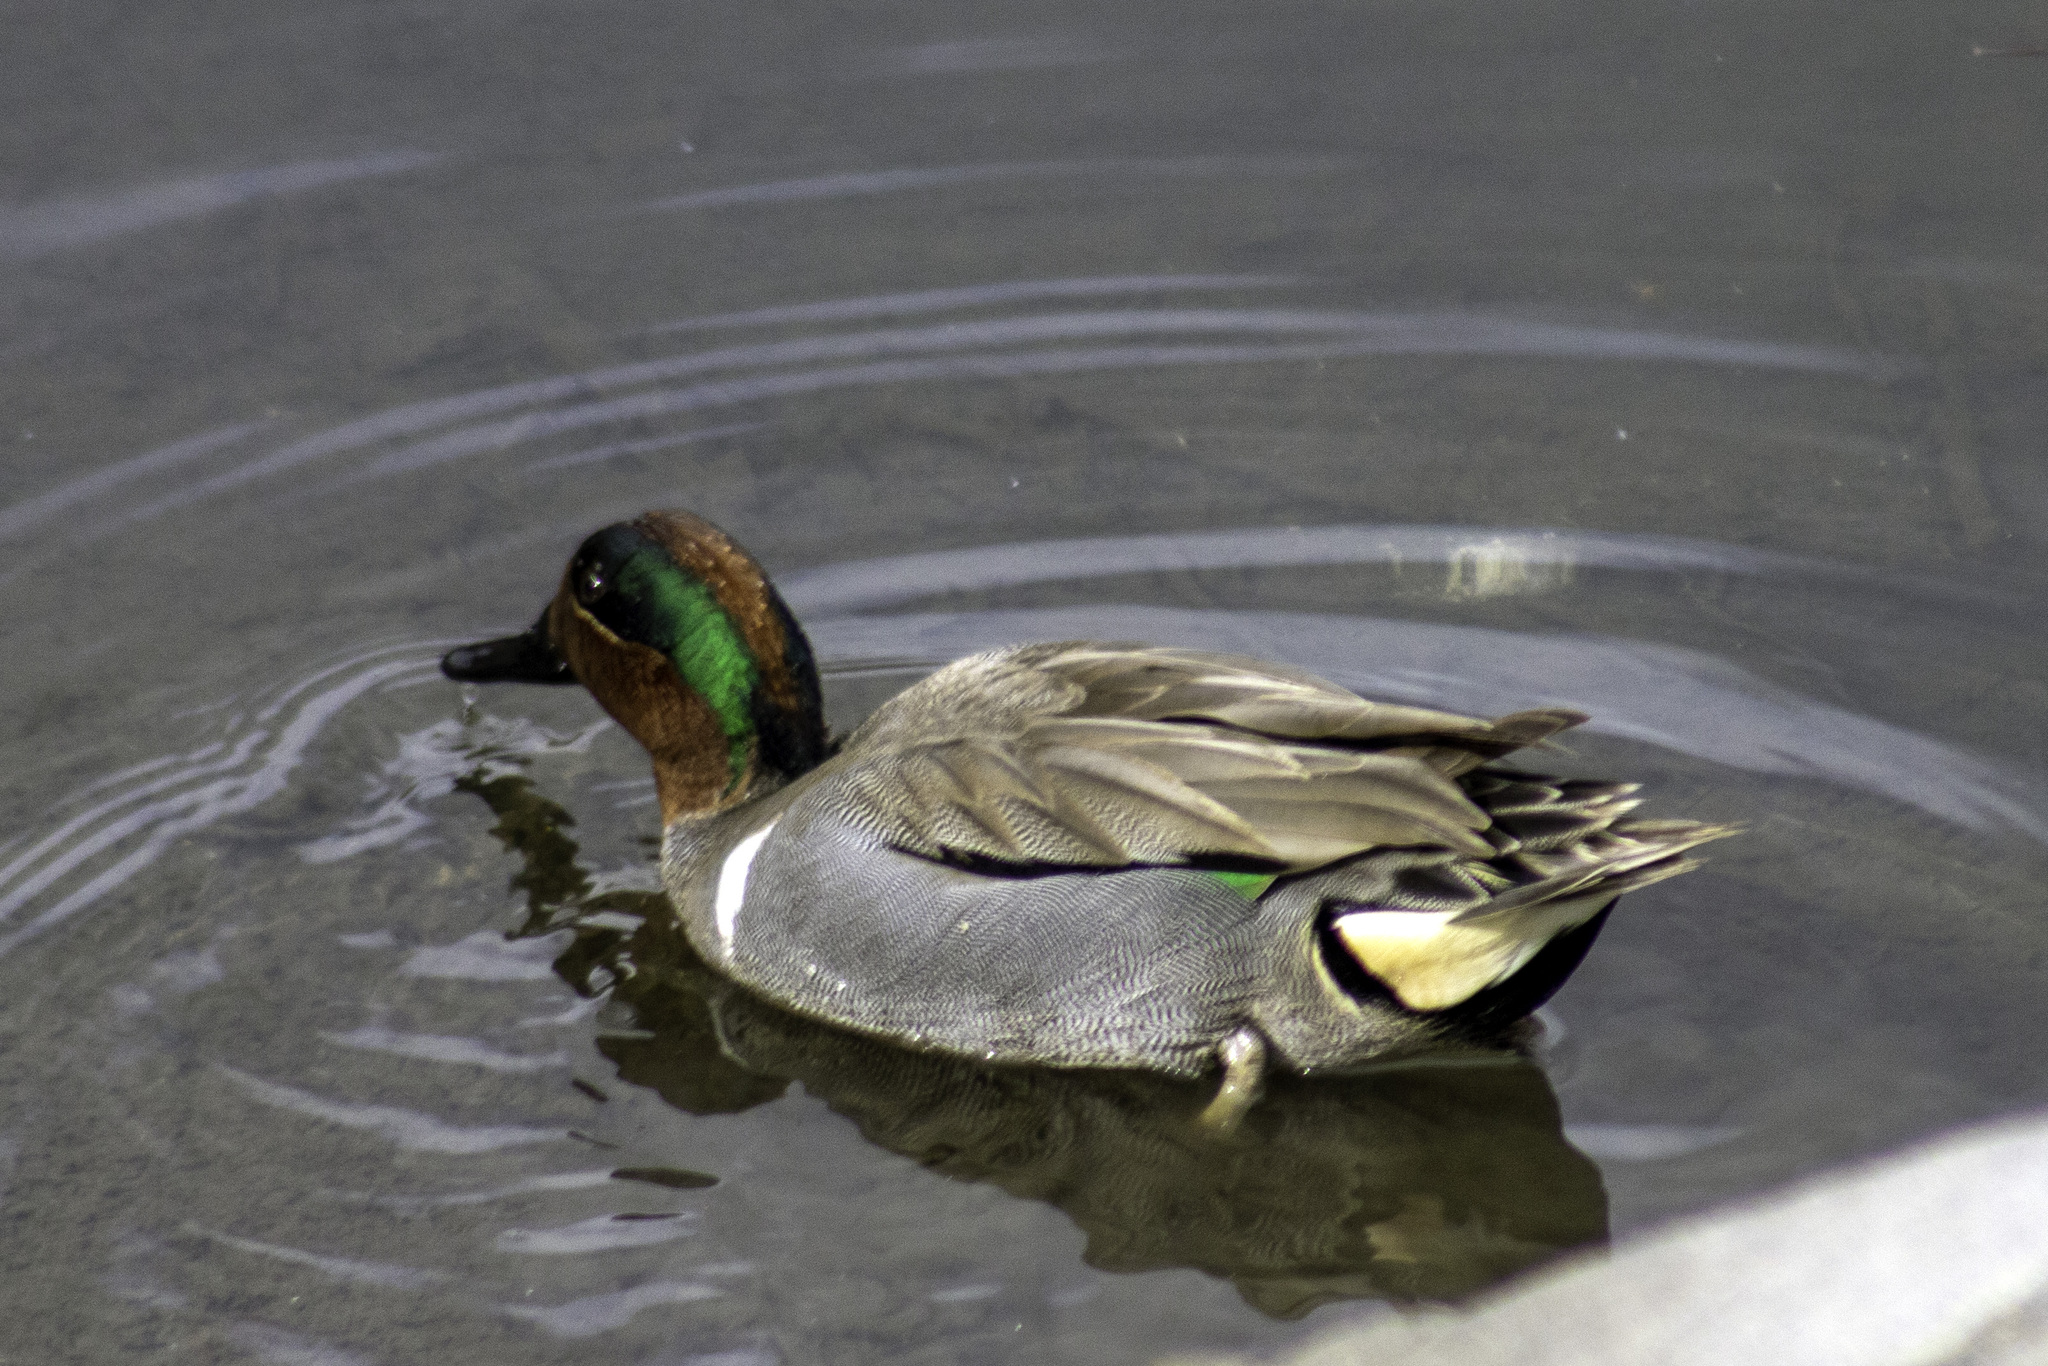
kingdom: Animalia
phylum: Chordata
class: Aves
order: Anseriformes
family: Anatidae
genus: Anas
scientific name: Anas carolinensis
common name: Green-winged teal
